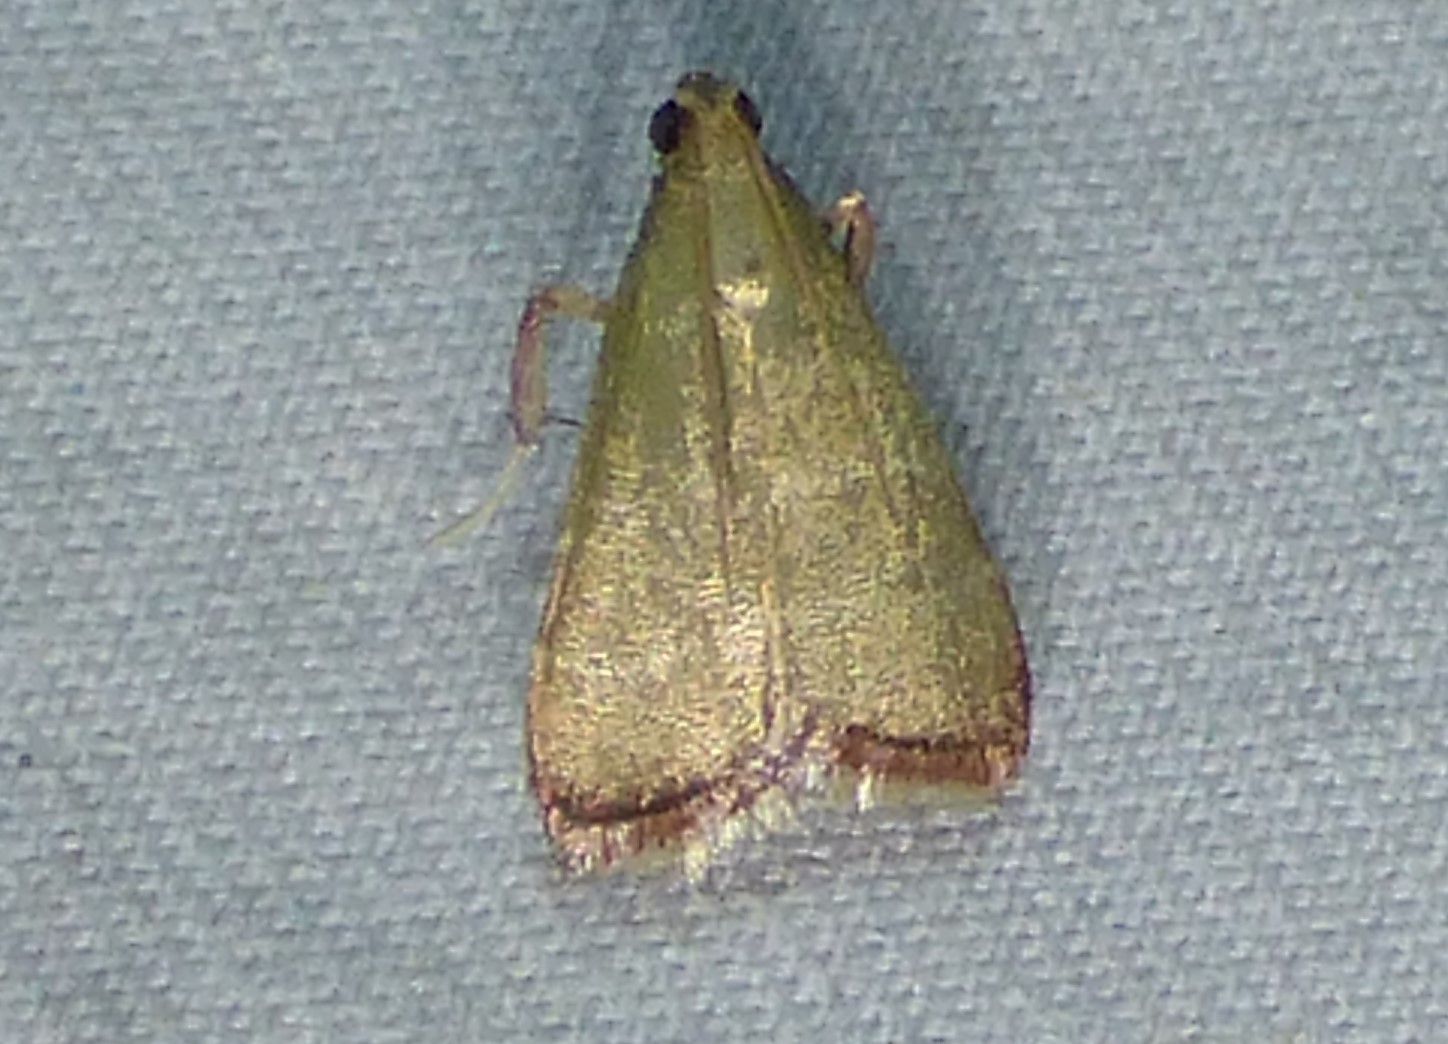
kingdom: Animalia
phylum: Arthropoda
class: Insecta
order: Lepidoptera
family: Pyralidae
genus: Arta
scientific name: Arta olivalis
